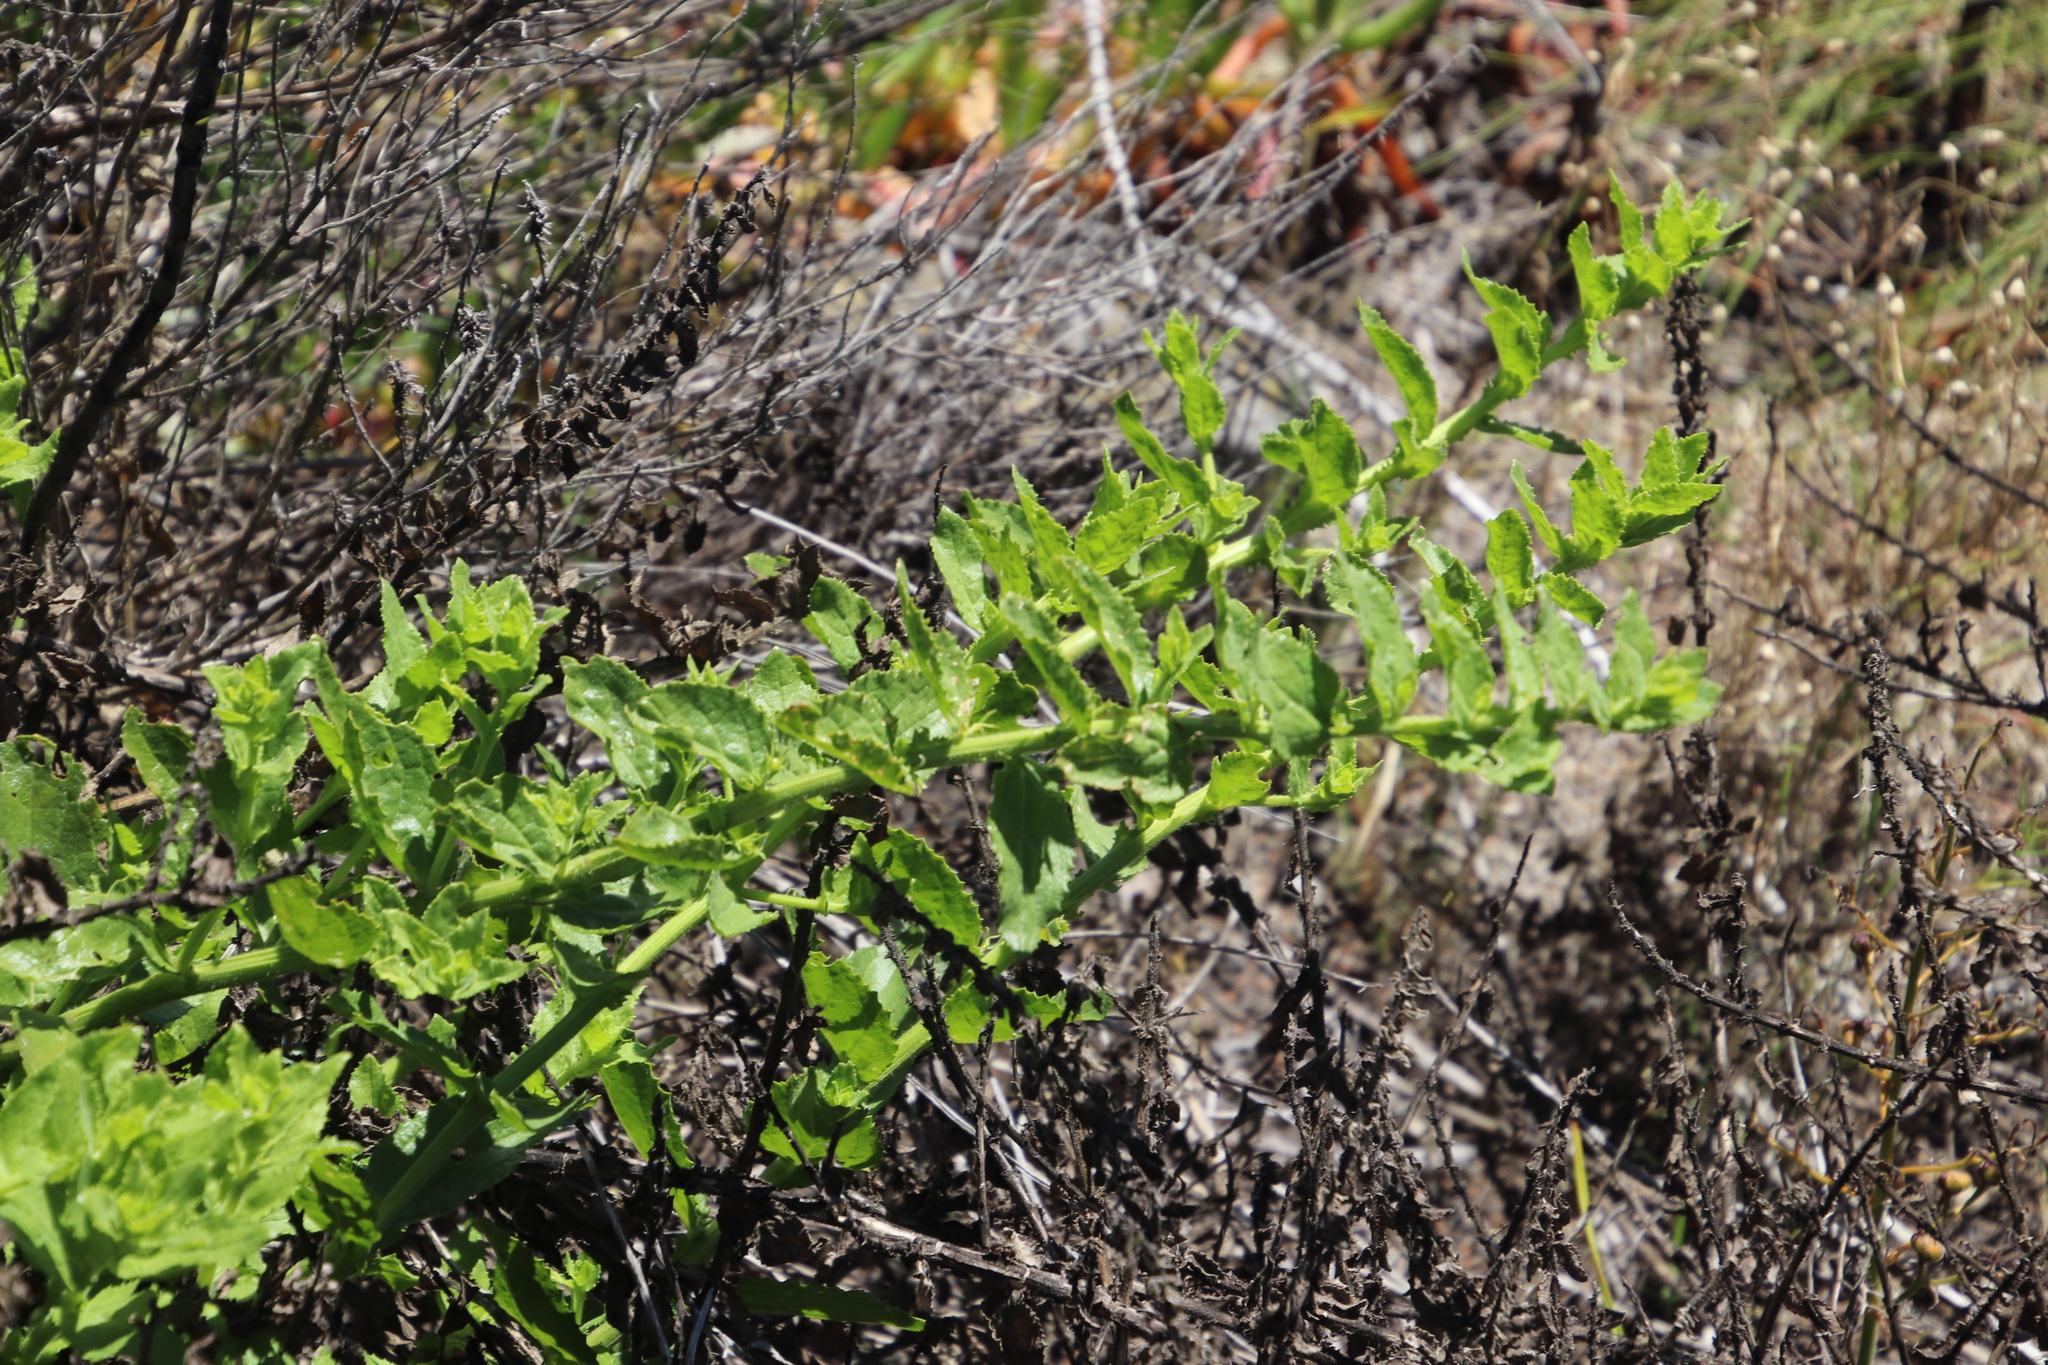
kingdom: Plantae
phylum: Tracheophyta
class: Magnoliopsida
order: Lamiales
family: Scrophulariaceae
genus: Oftia
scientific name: Oftia africana
